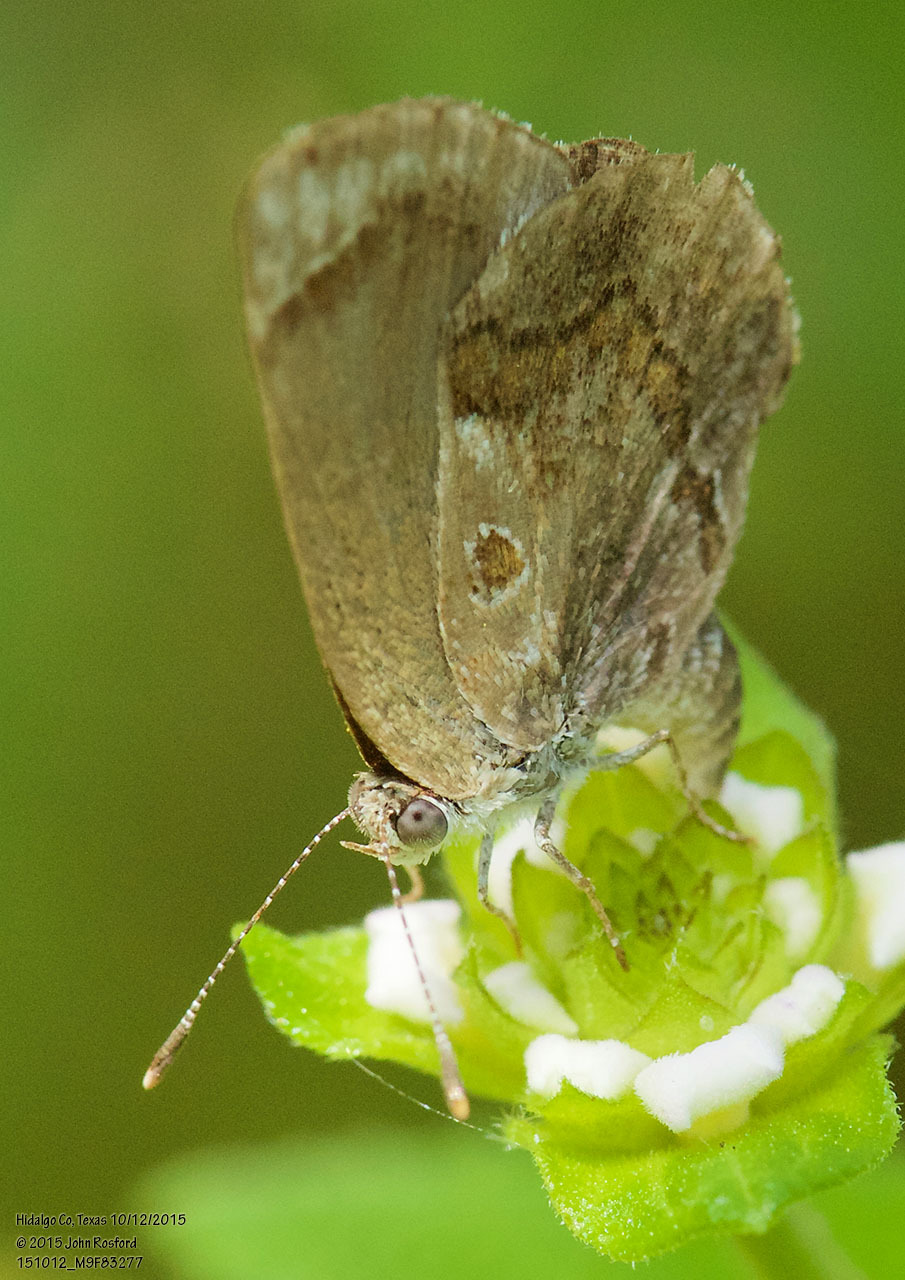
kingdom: Animalia
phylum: Arthropoda
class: Insecta
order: Lepidoptera
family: Lycaenidae
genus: Strymon
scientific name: Strymon bazochii
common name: Lantana scrub-hairstreak
